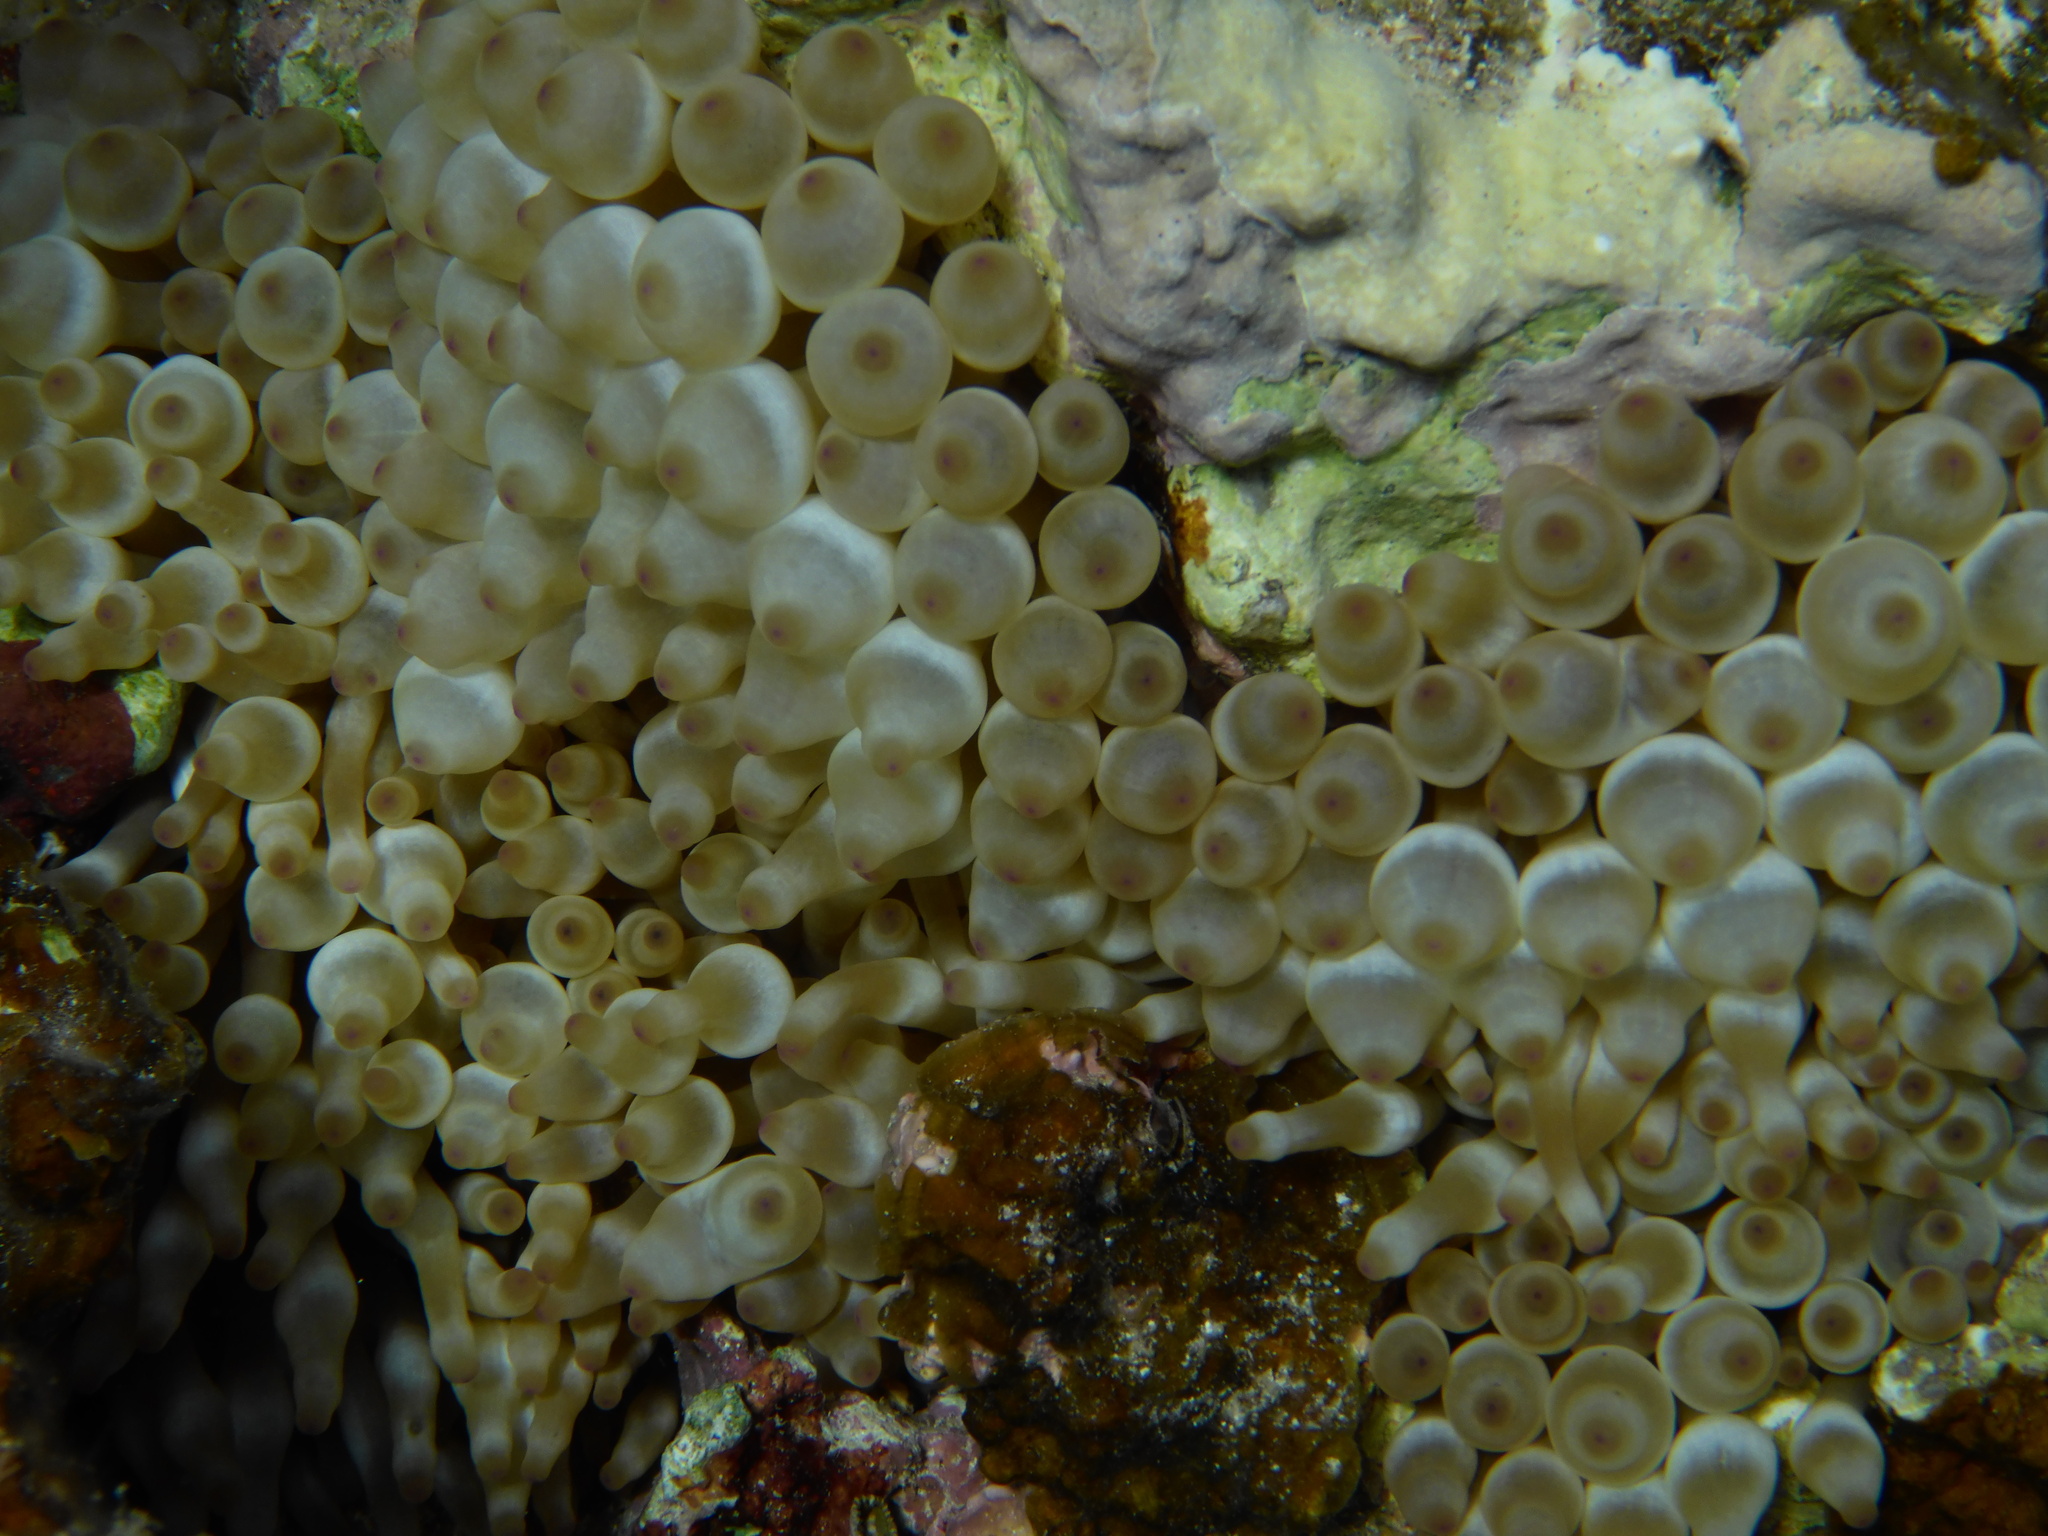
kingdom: Animalia
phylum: Cnidaria
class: Anthozoa
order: Actiniaria
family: Actiniidae
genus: Entacmaea
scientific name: Entacmaea quadricolor
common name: Bulb tentacle sea anemone
